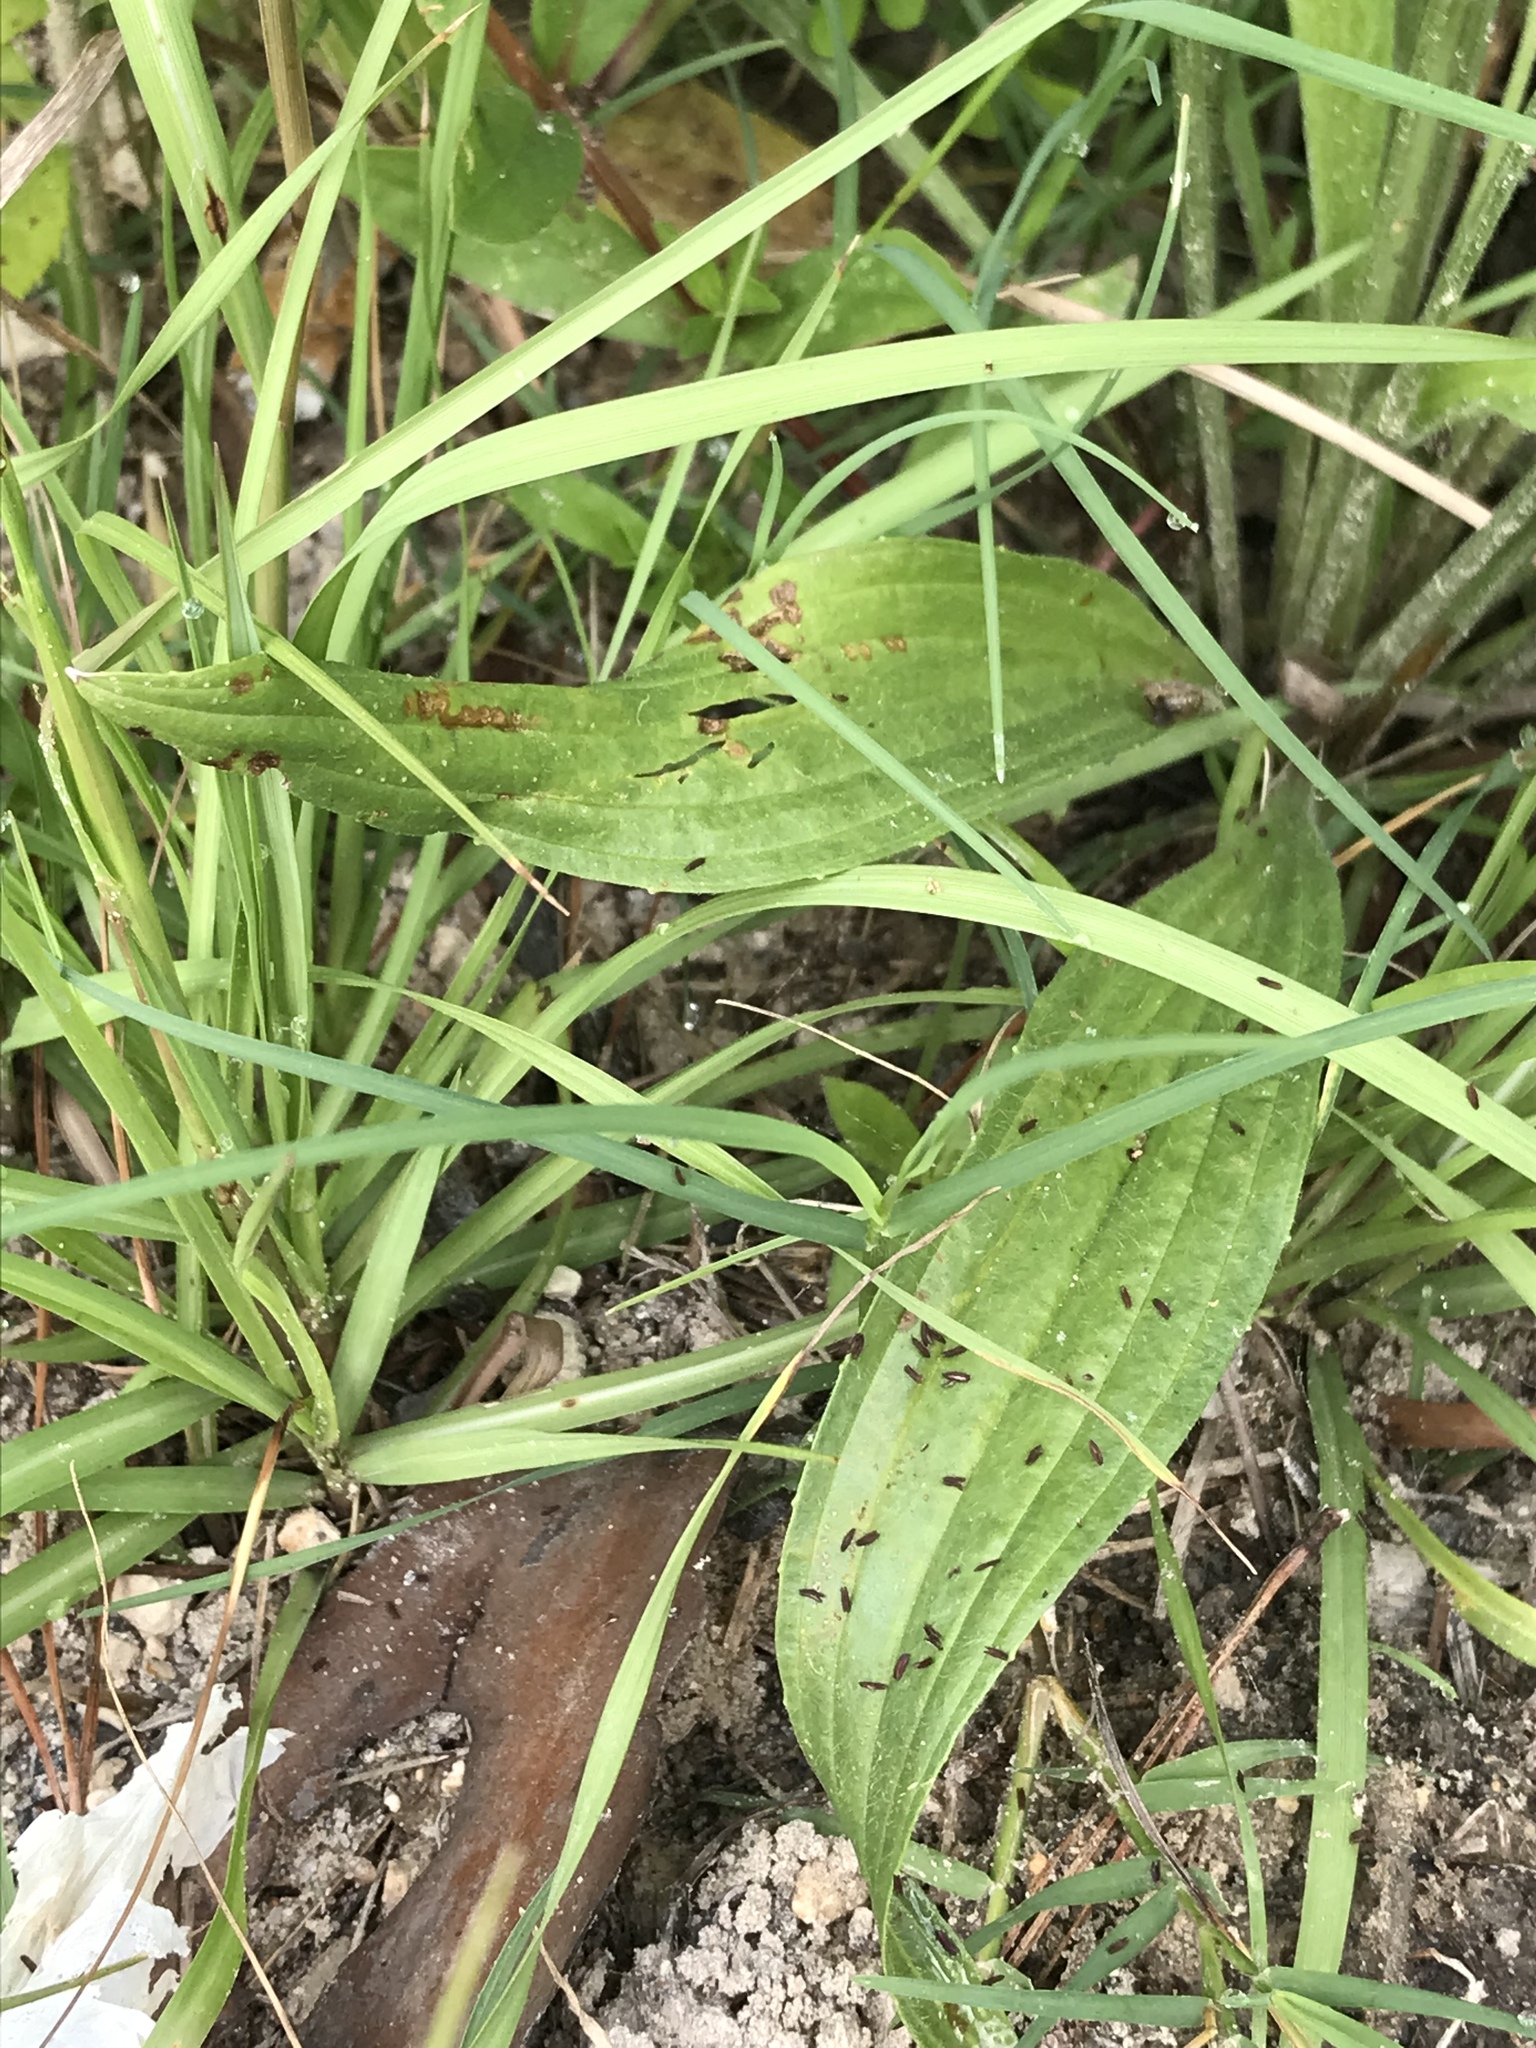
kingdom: Plantae
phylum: Tracheophyta
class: Magnoliopsida
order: Lamiales
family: Plantaginaceae
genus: Plantago
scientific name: Plantago lanceolata
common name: Ribwort plantain
